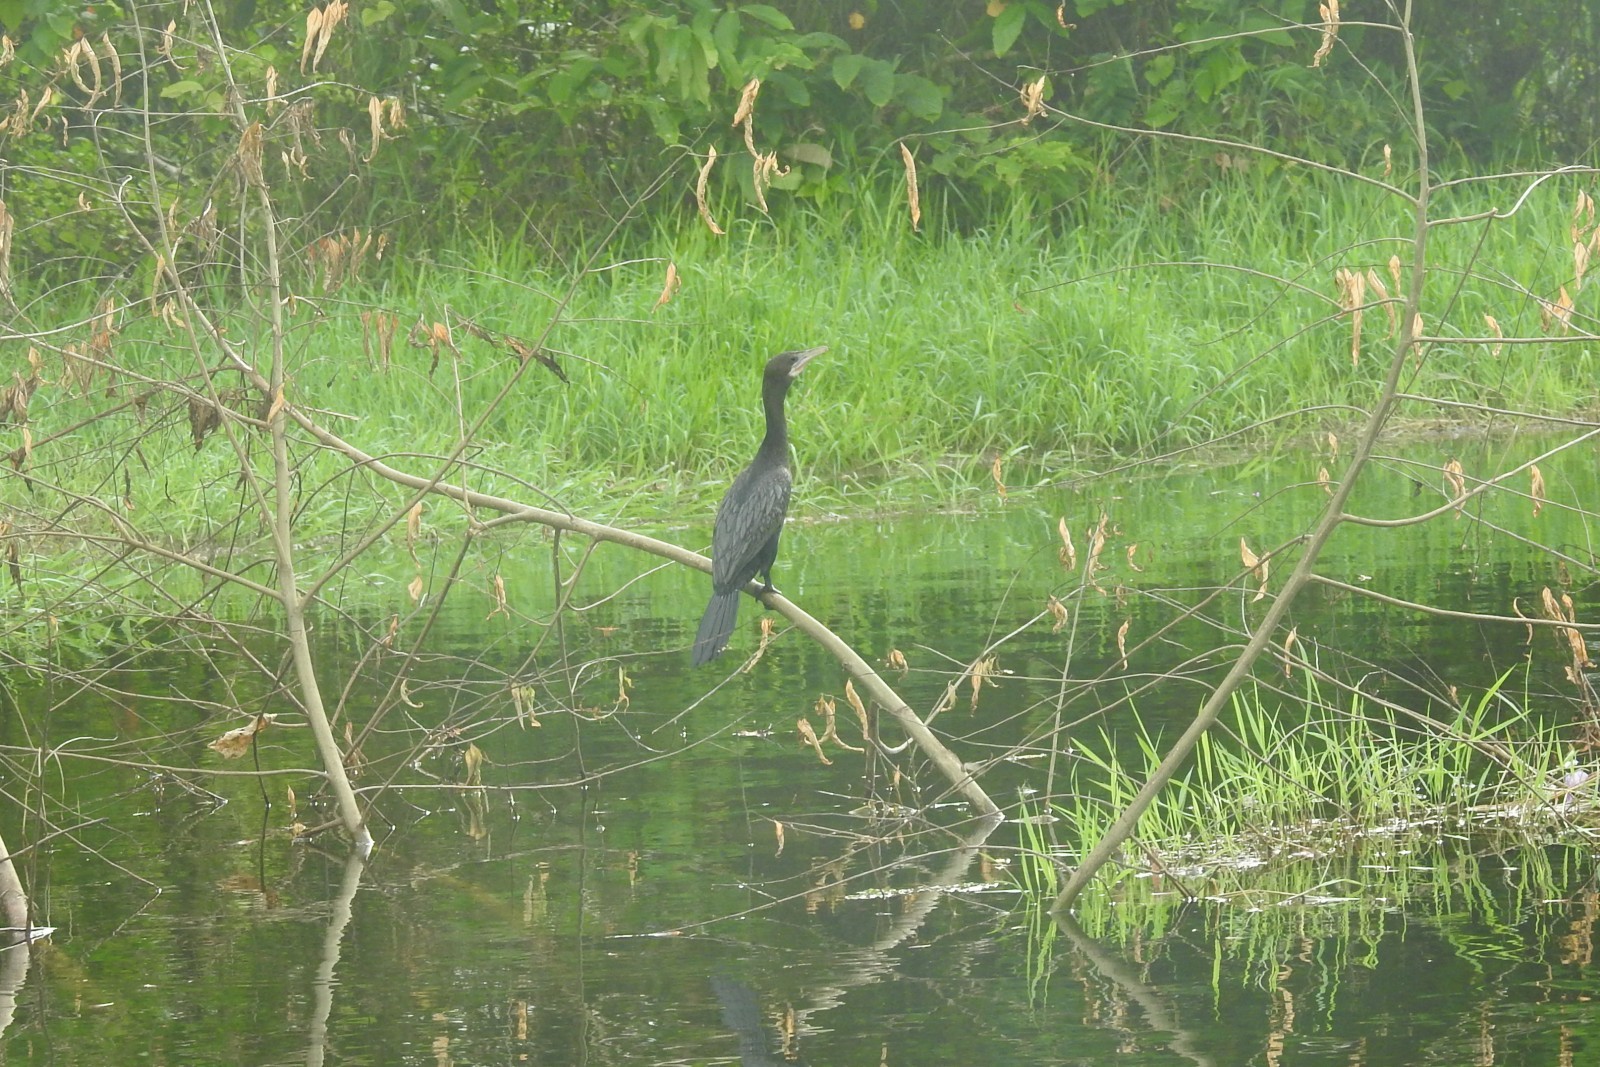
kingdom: Animalia
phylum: Chordata
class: Aves
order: Suliformes
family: Phalacrocoracidae
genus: Microcarbo
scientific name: Microcarbo niger
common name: Little cormorant
